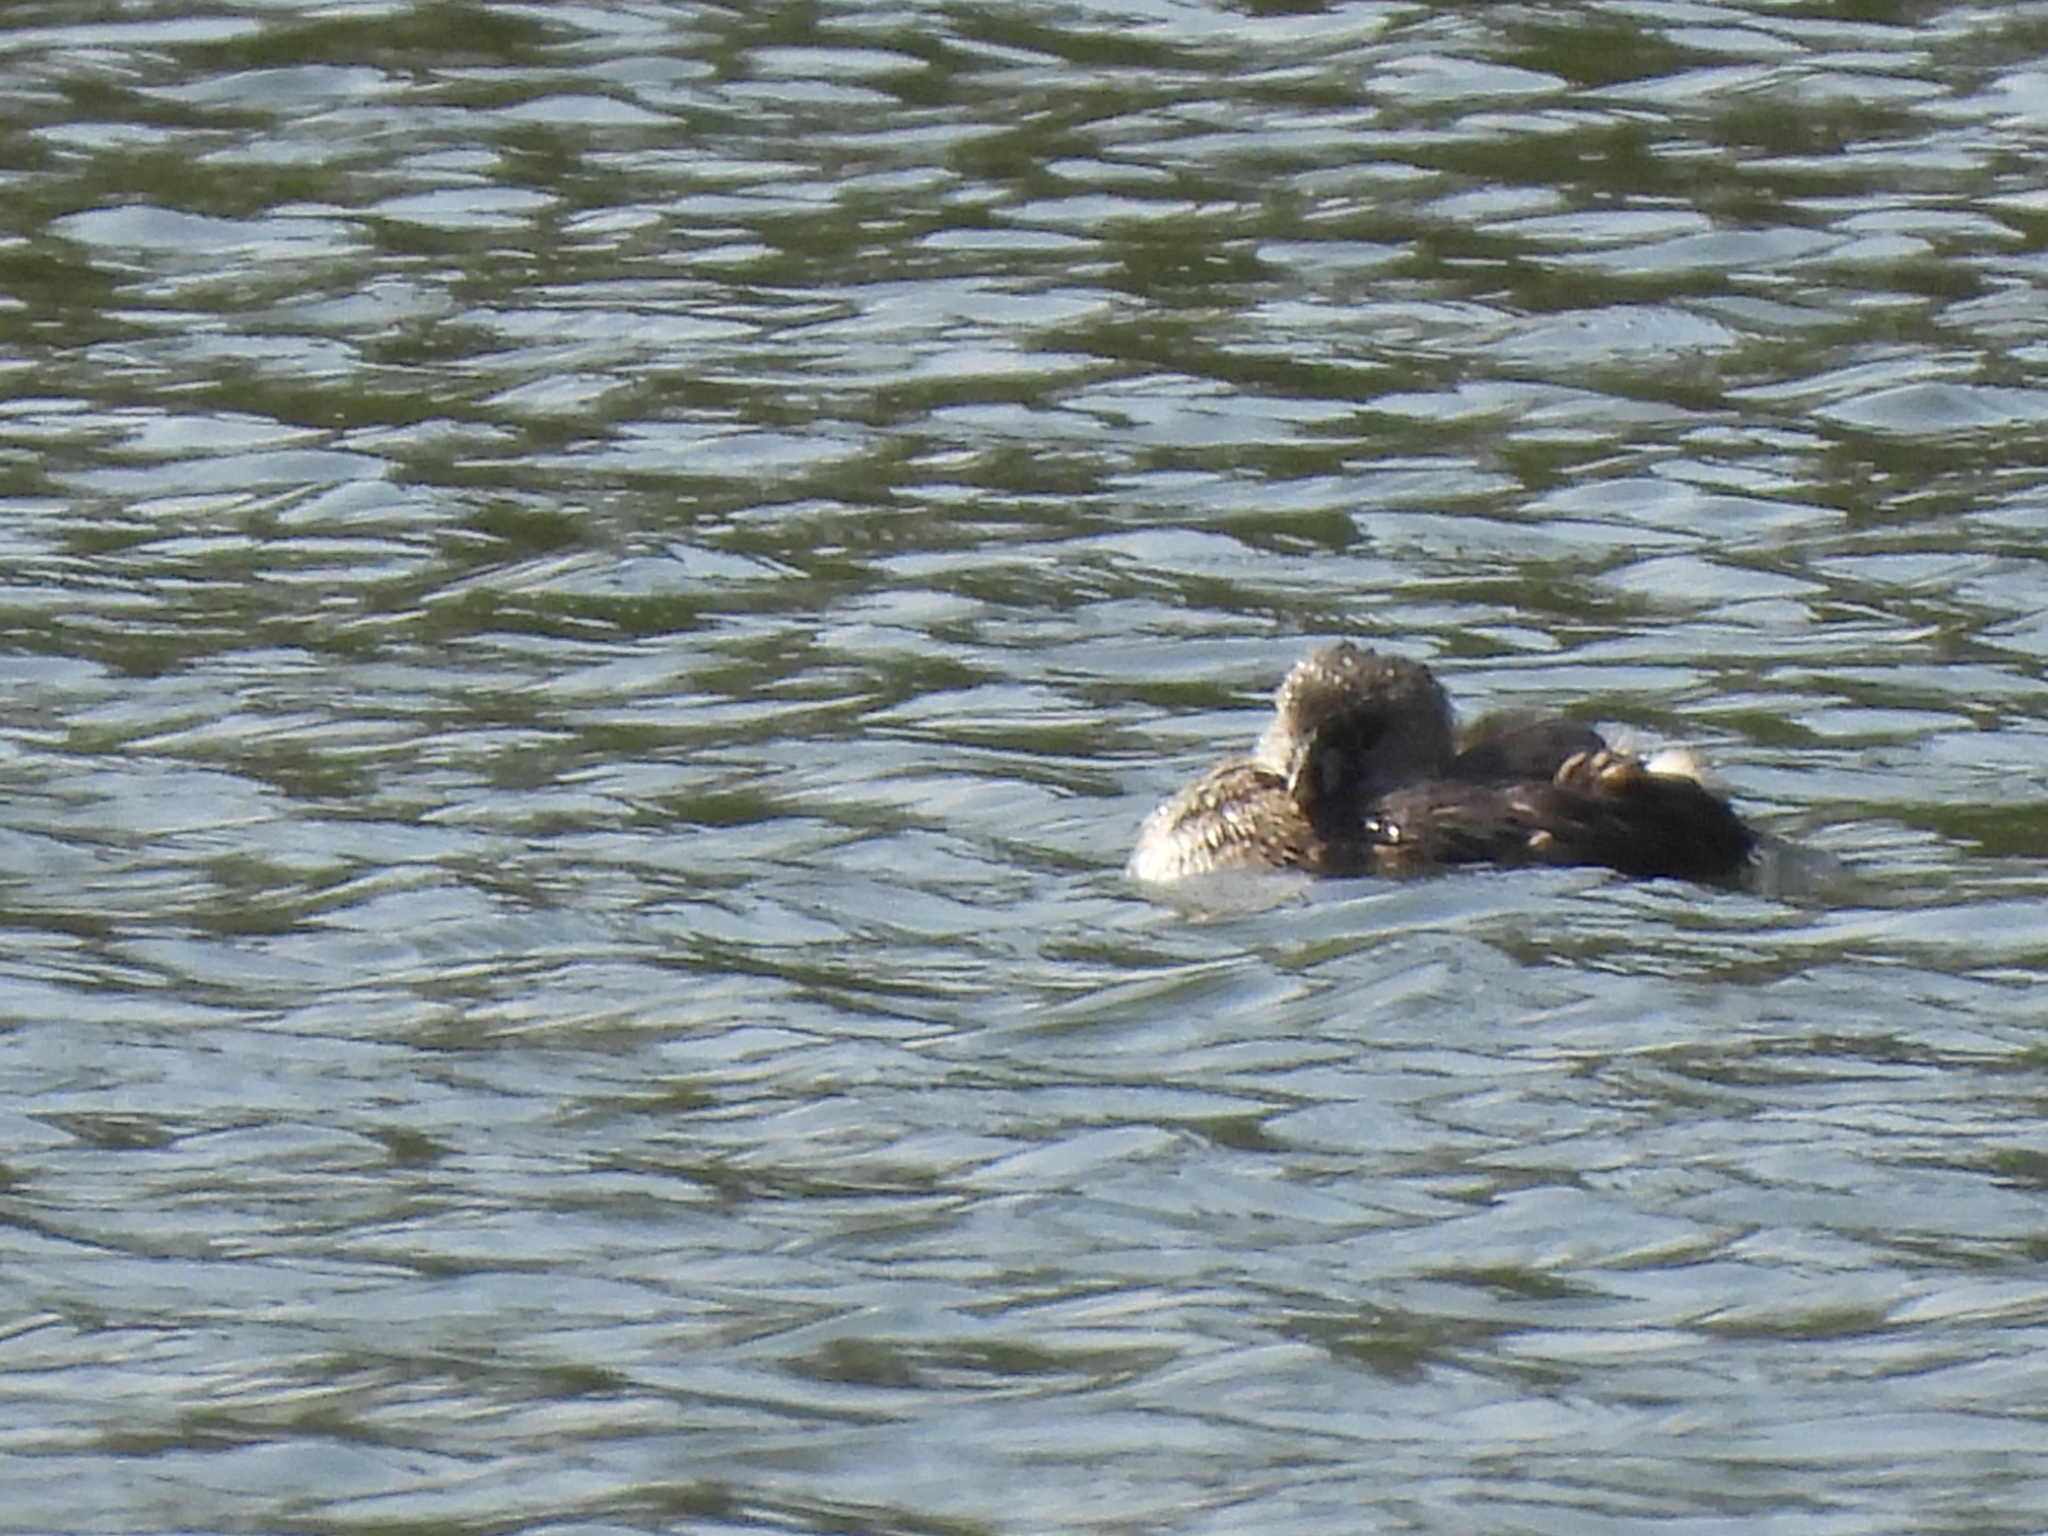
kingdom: Animalia
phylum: Chordata
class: Aves
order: Podicipediformes
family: Podicipedidae
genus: Podilymbus
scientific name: Podilymbus podiceps
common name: Pied-billed grebe
